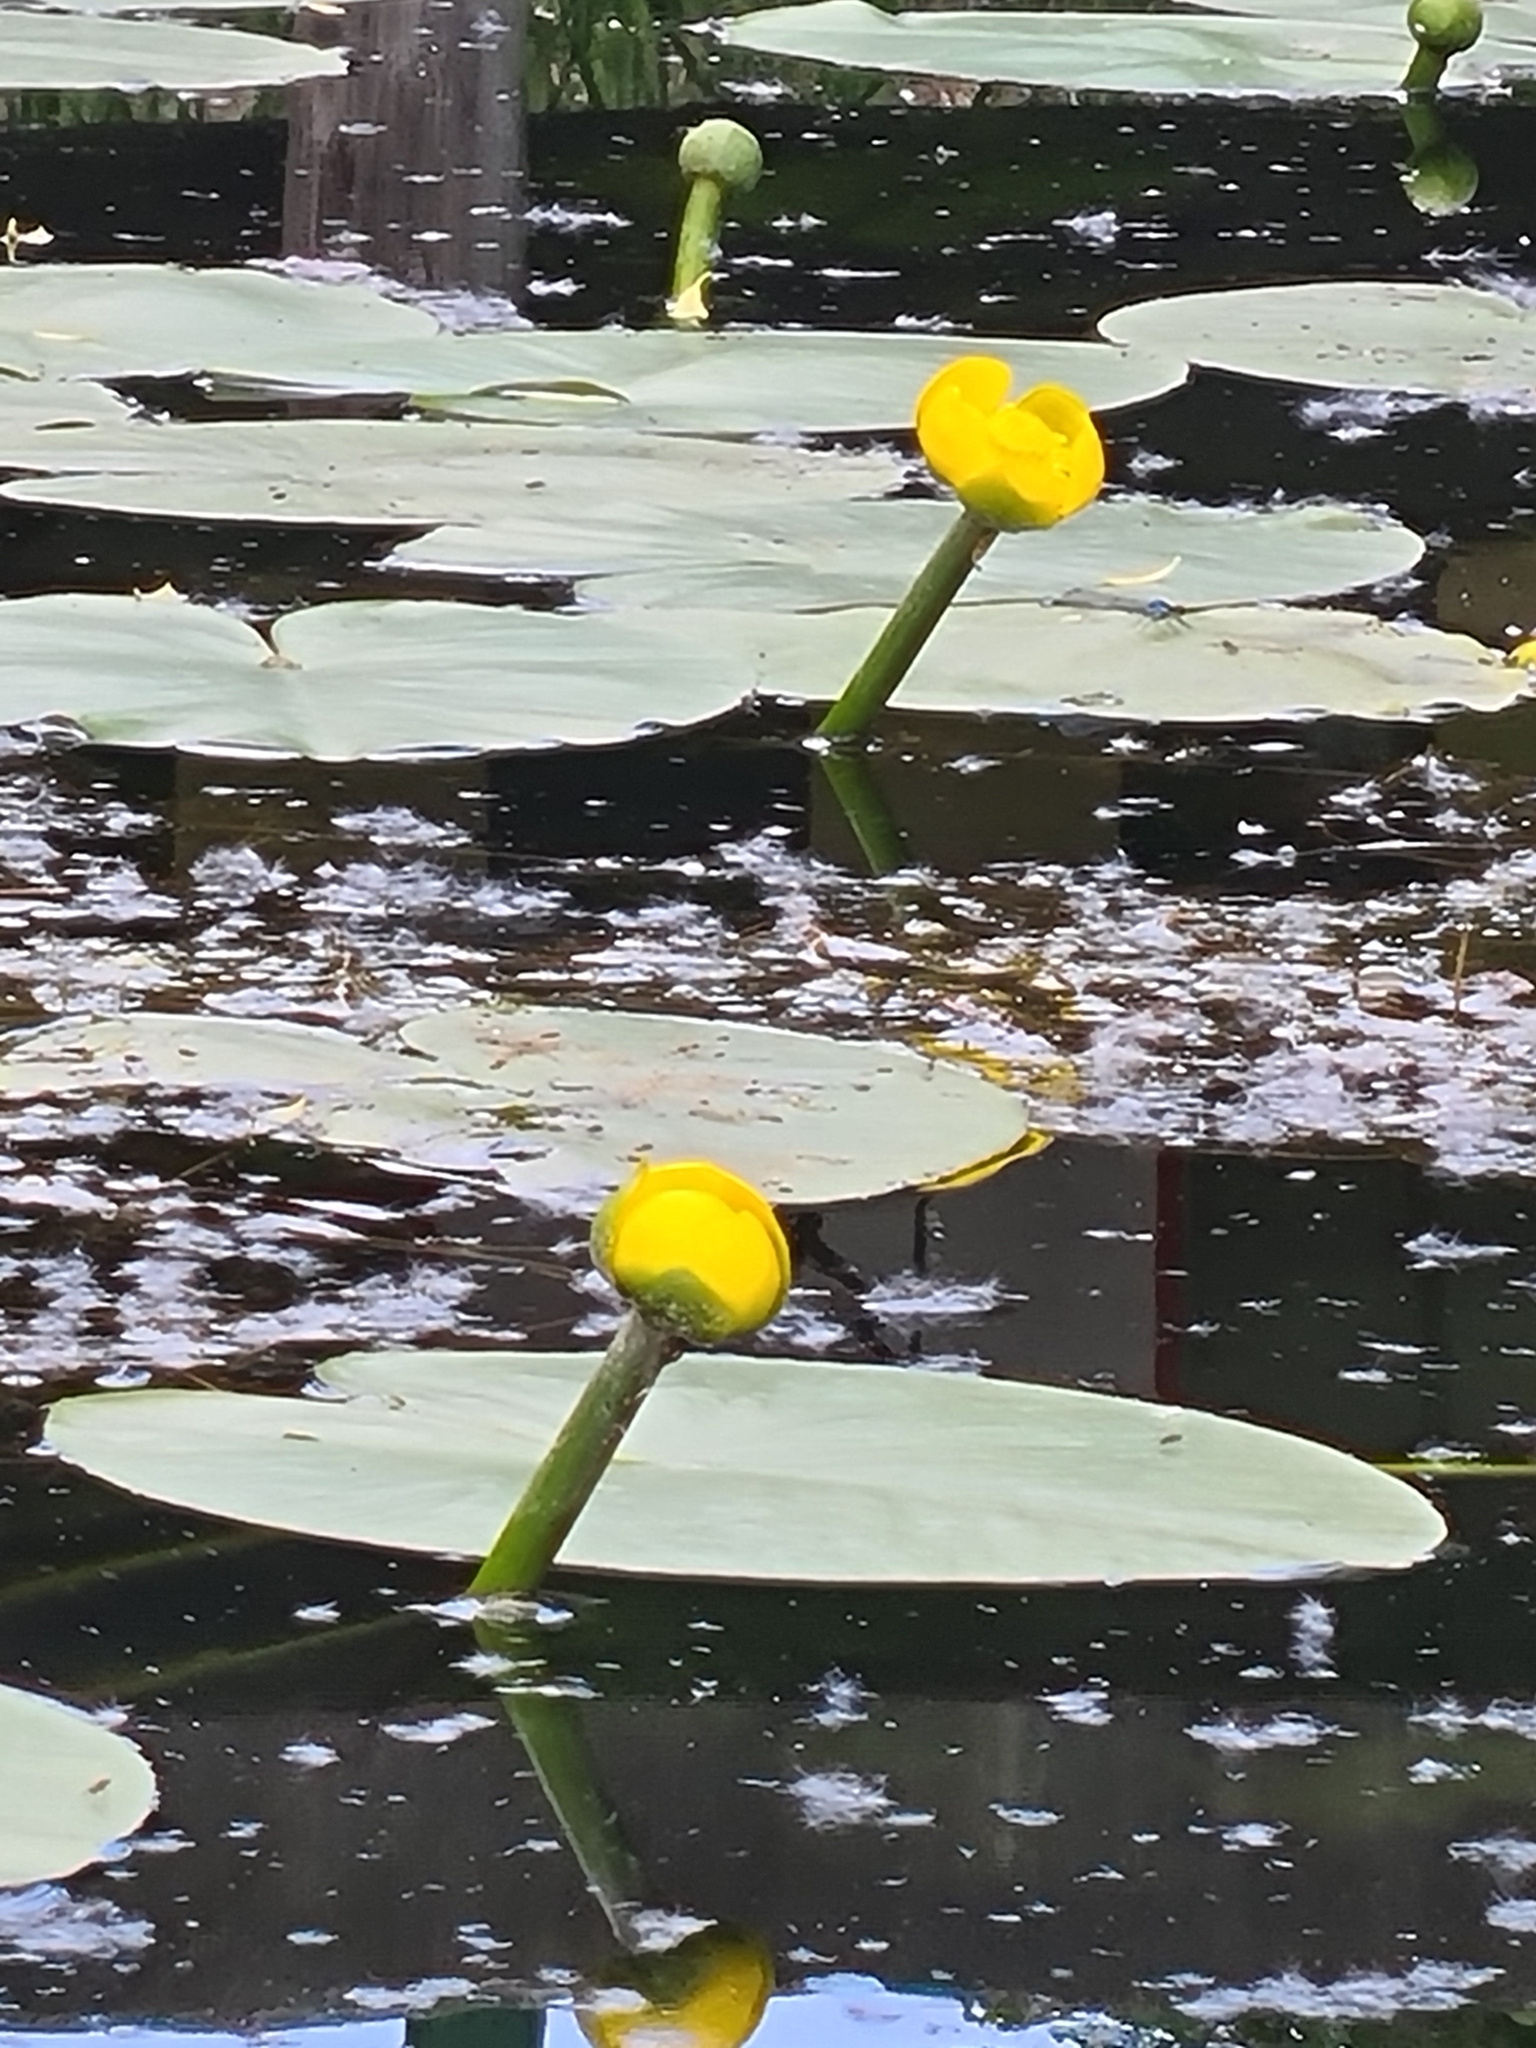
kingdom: Plantae
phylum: Tracheophyta
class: Magnoliopsida
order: Nymphaeales
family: Nymphaeaceae
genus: Nuphar
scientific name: Nuphar lutea
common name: Yellow water-lily
